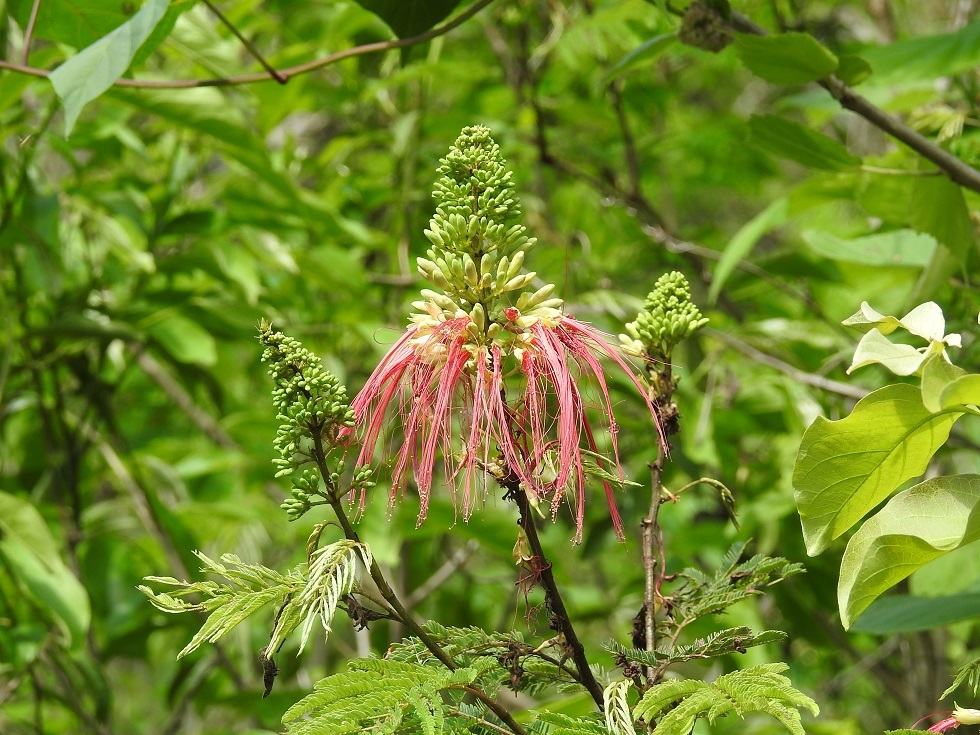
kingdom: Plantae
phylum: Tracheophyta
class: Magnoliopsida
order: Fabales
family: Fabaceae
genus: Calliandra
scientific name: Calliandra houstoniana
